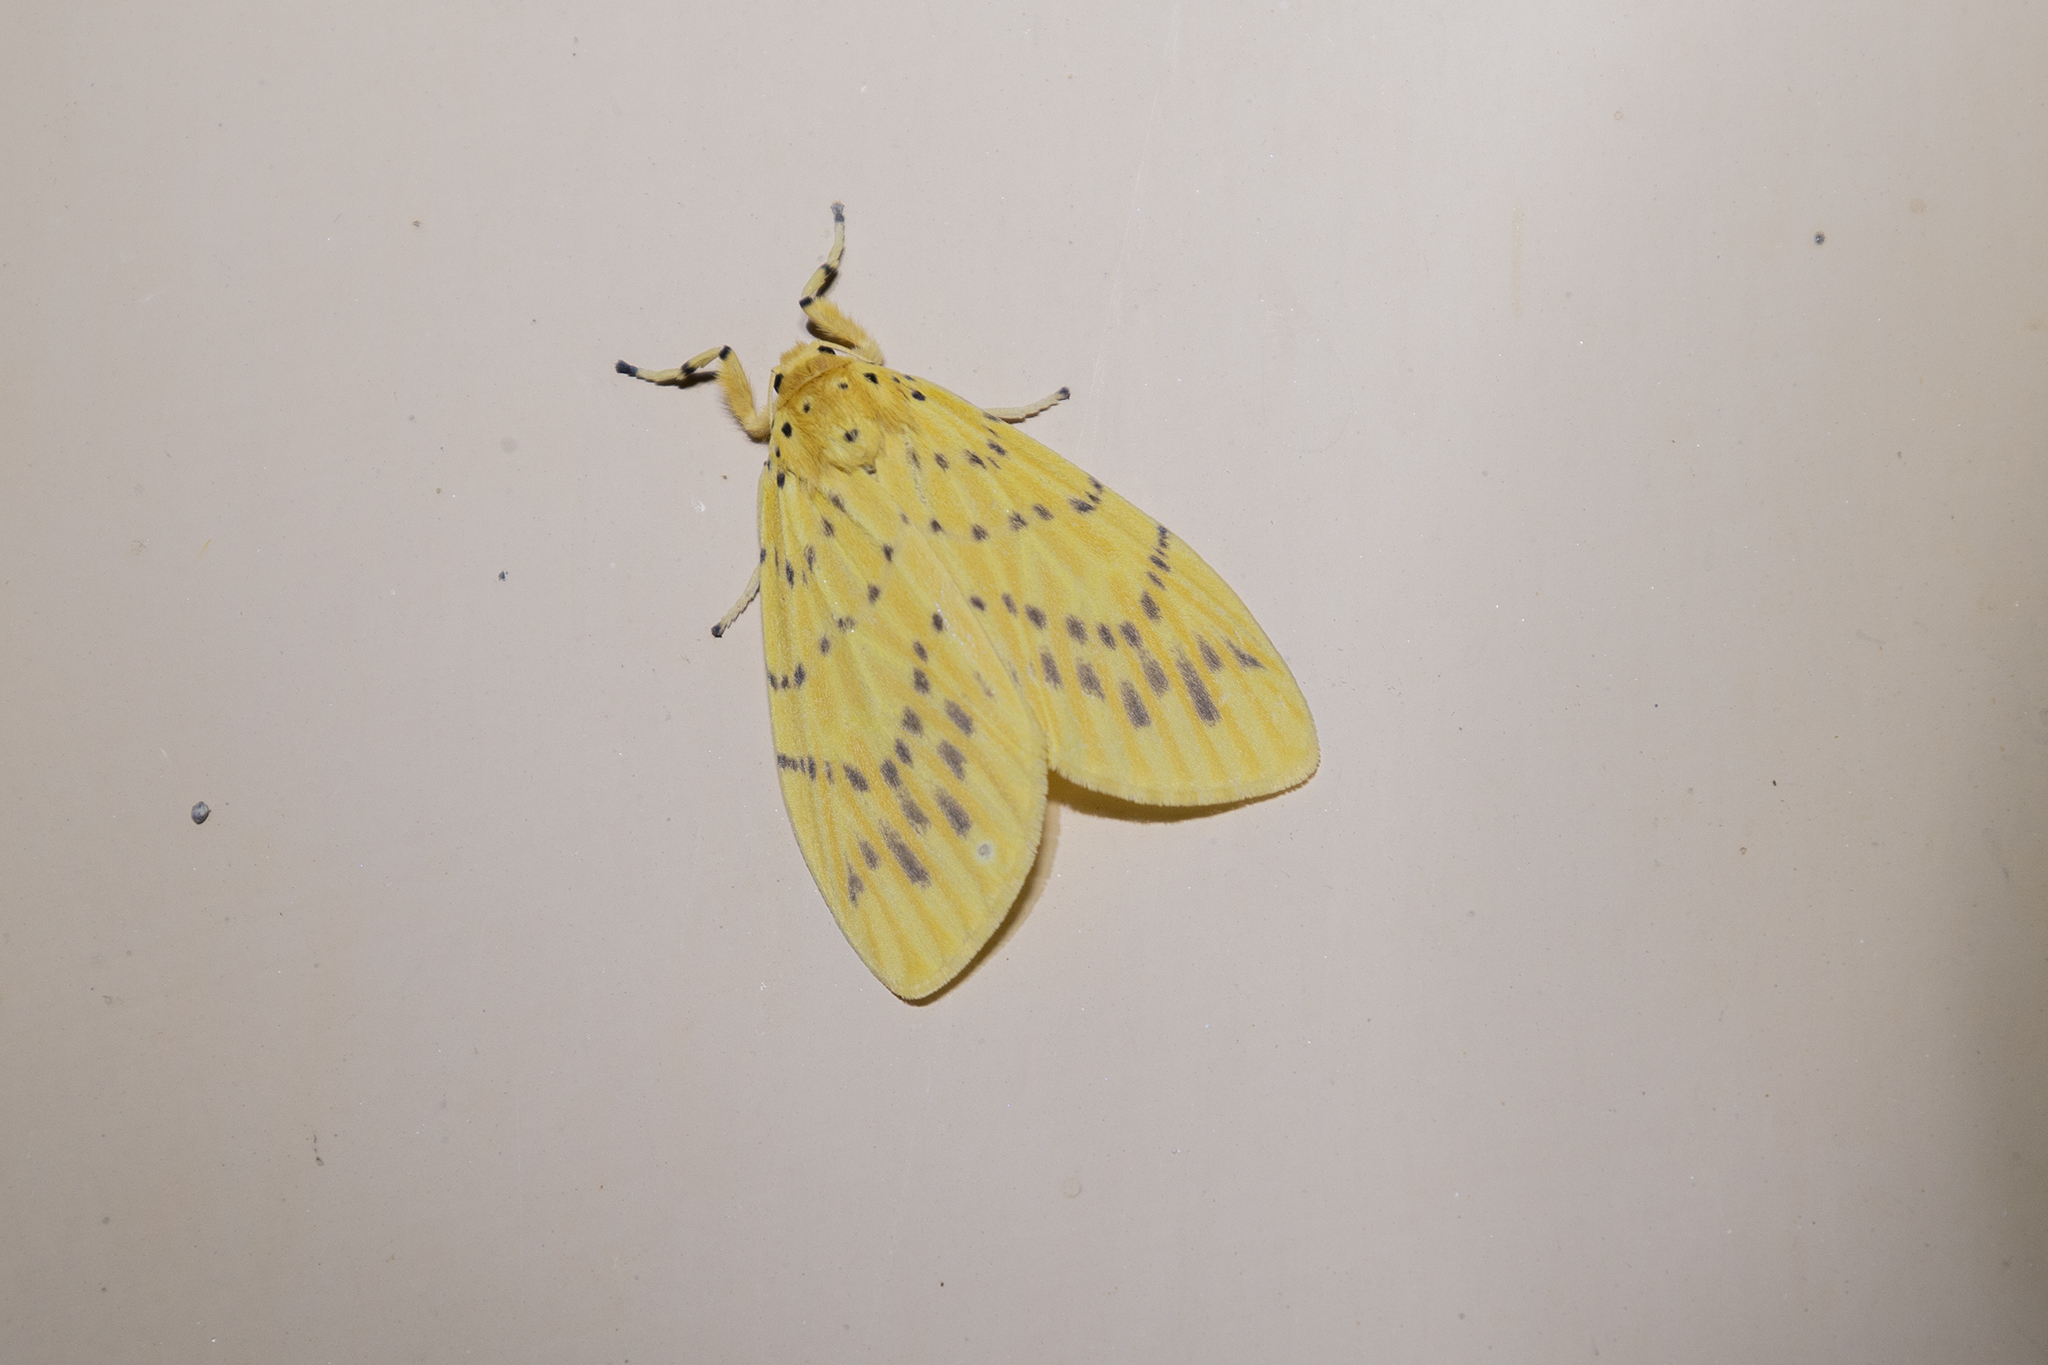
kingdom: Animalia
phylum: Arthropoda
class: Insecta
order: Lepidoptera
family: Erebidae
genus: Barsine
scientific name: Barsine defecta
